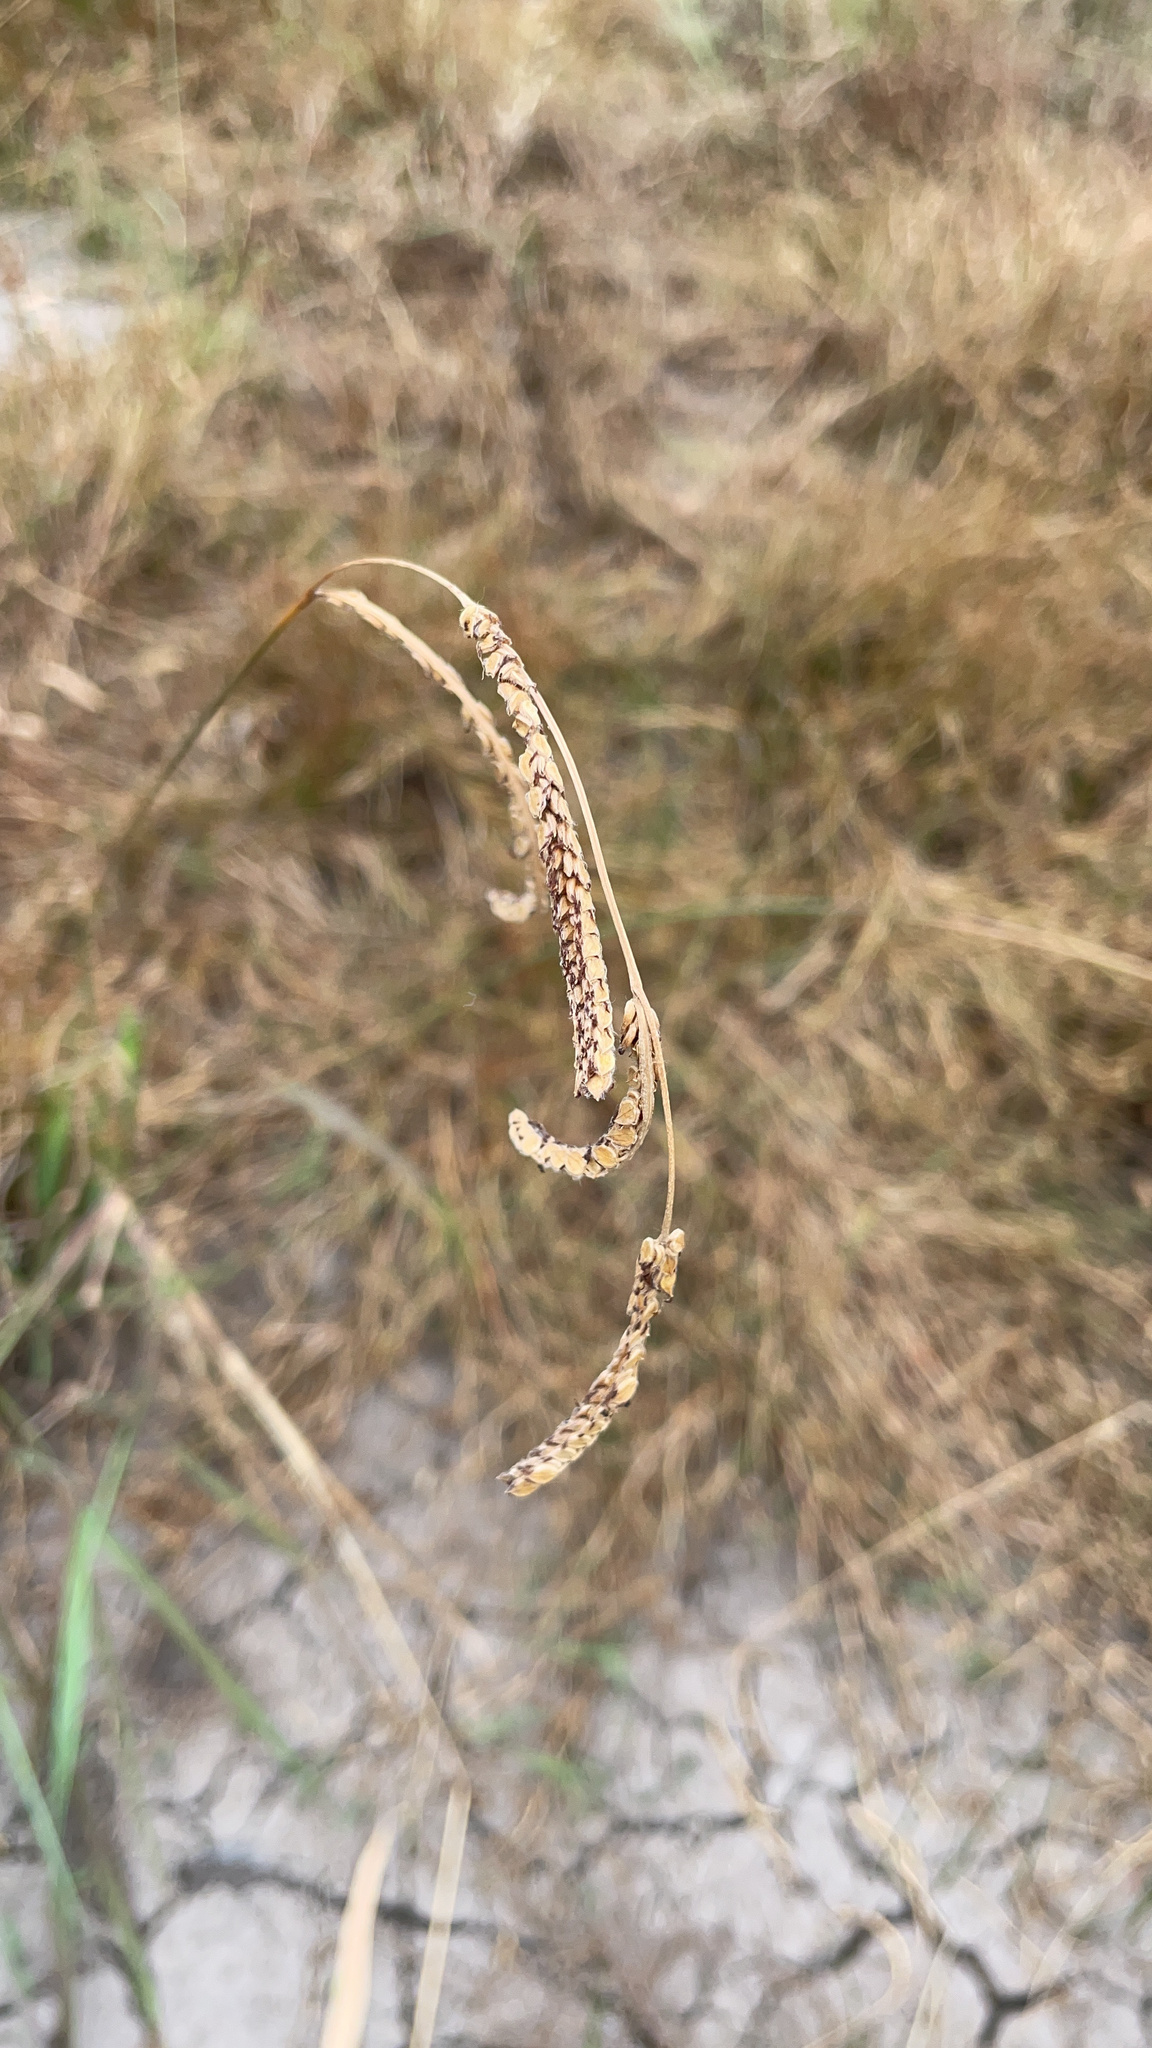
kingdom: Plantae
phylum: Tracheophyta
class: Liliopsida
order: Poales
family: Poaceae
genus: Paspalum
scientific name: Paspalum dilatatum
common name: Dallisgrass
